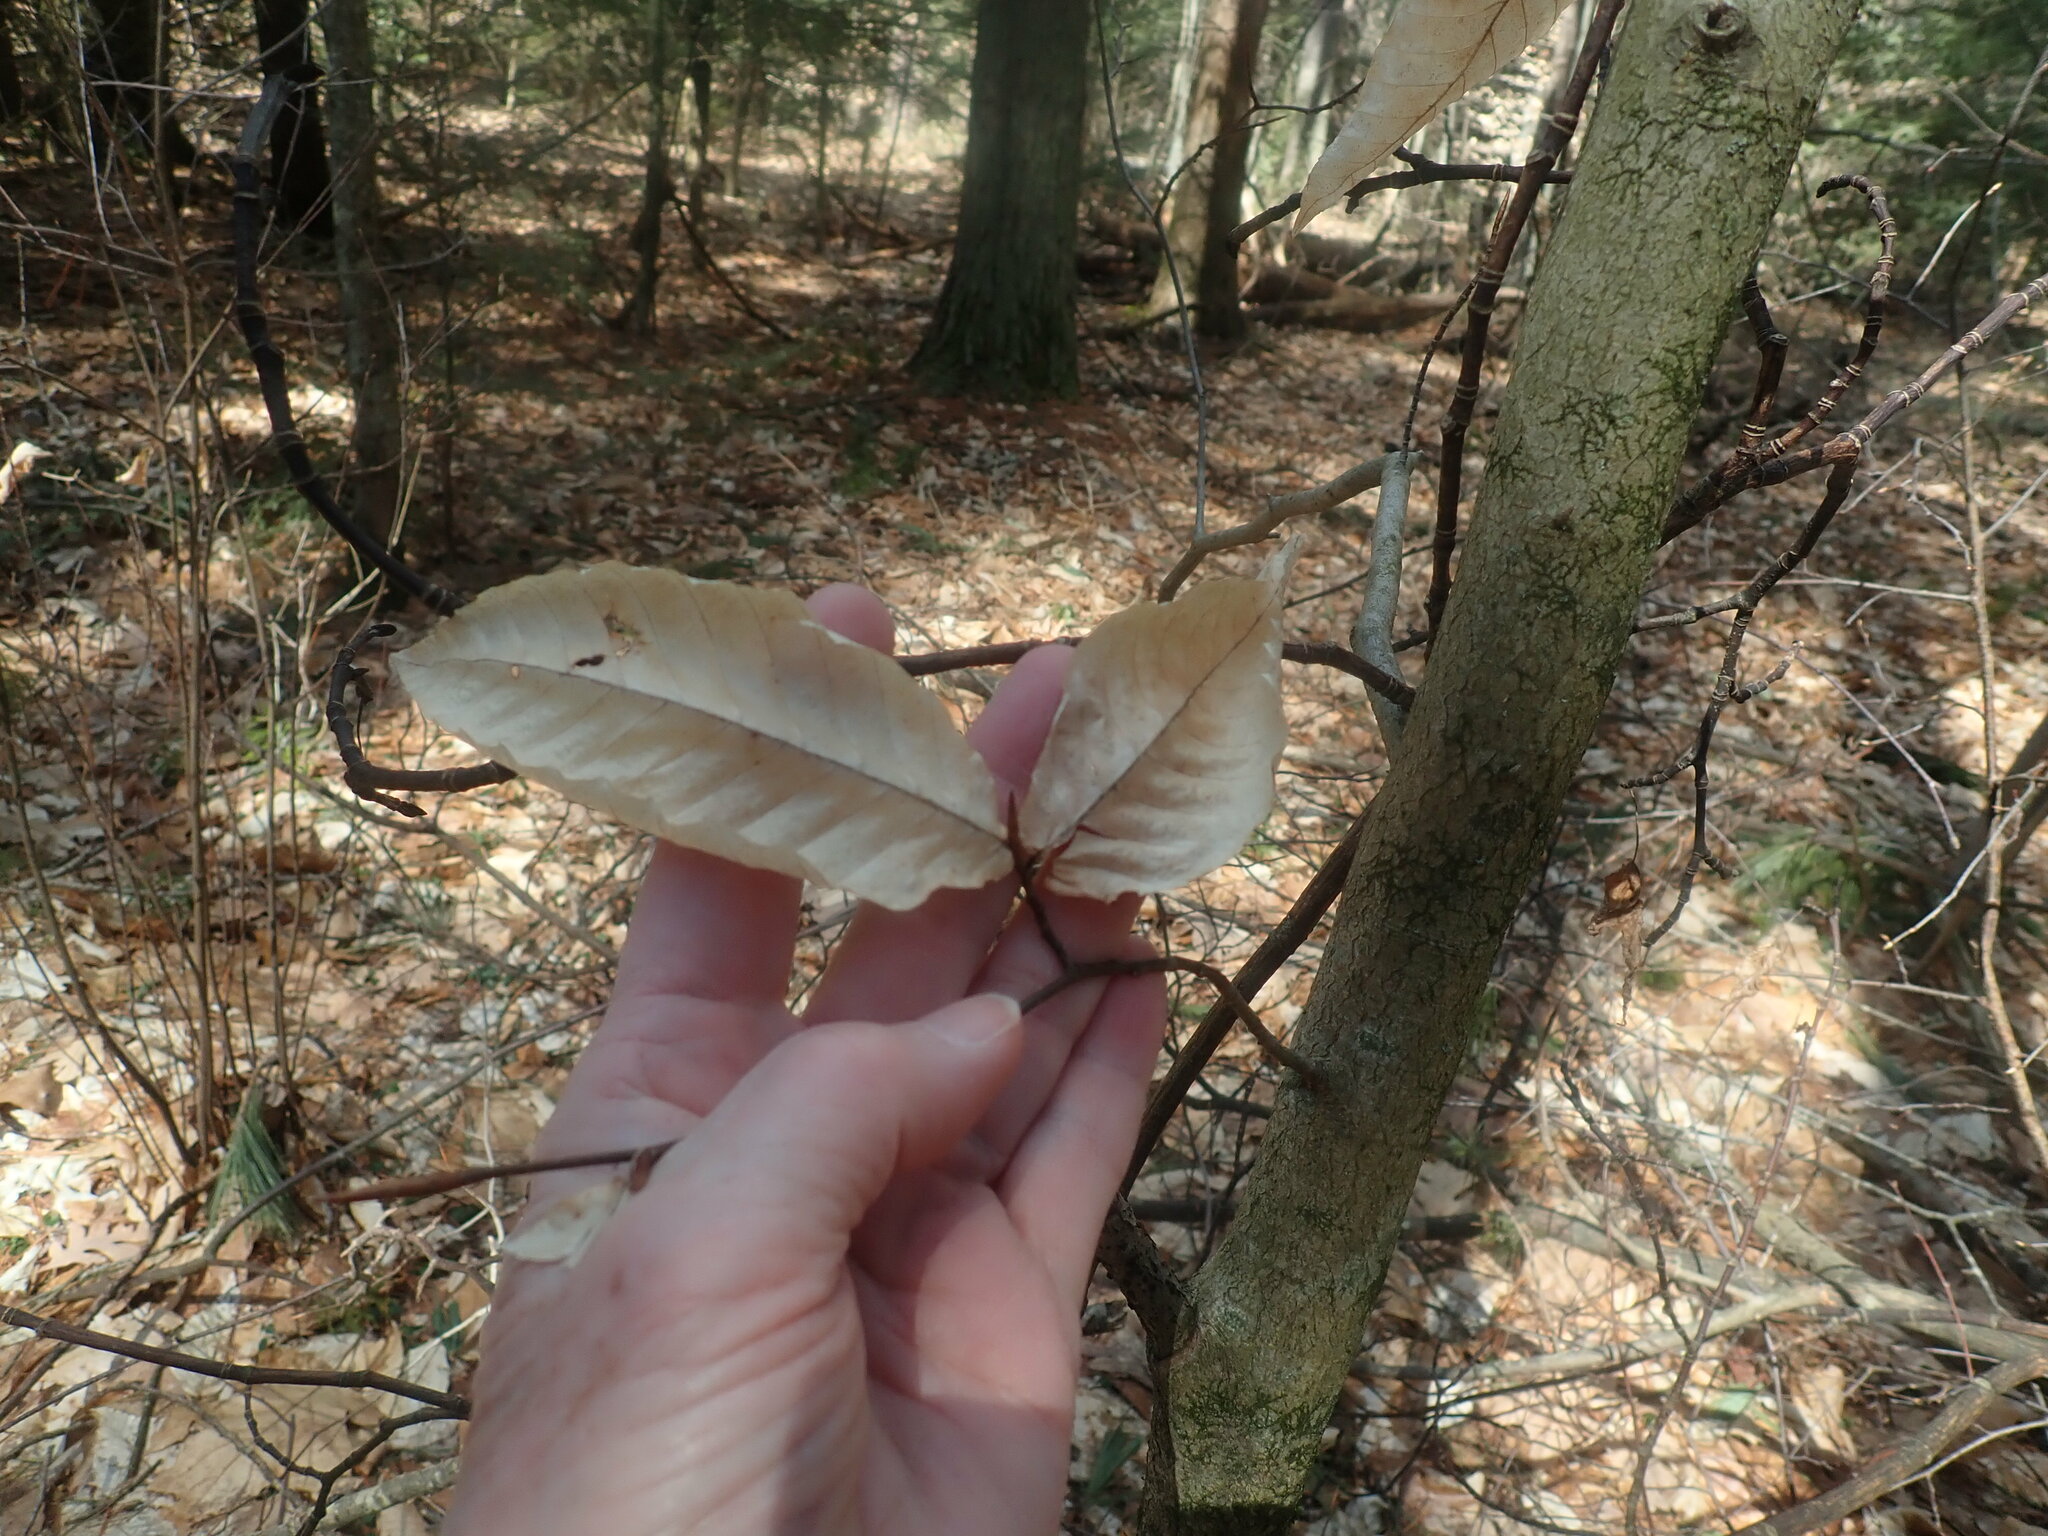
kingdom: Plantae
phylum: Tracheophyta
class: Magnoliopsida
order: Fagales
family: Fagaceae
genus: Fagus
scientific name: Fagus grandifolia
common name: American beech
